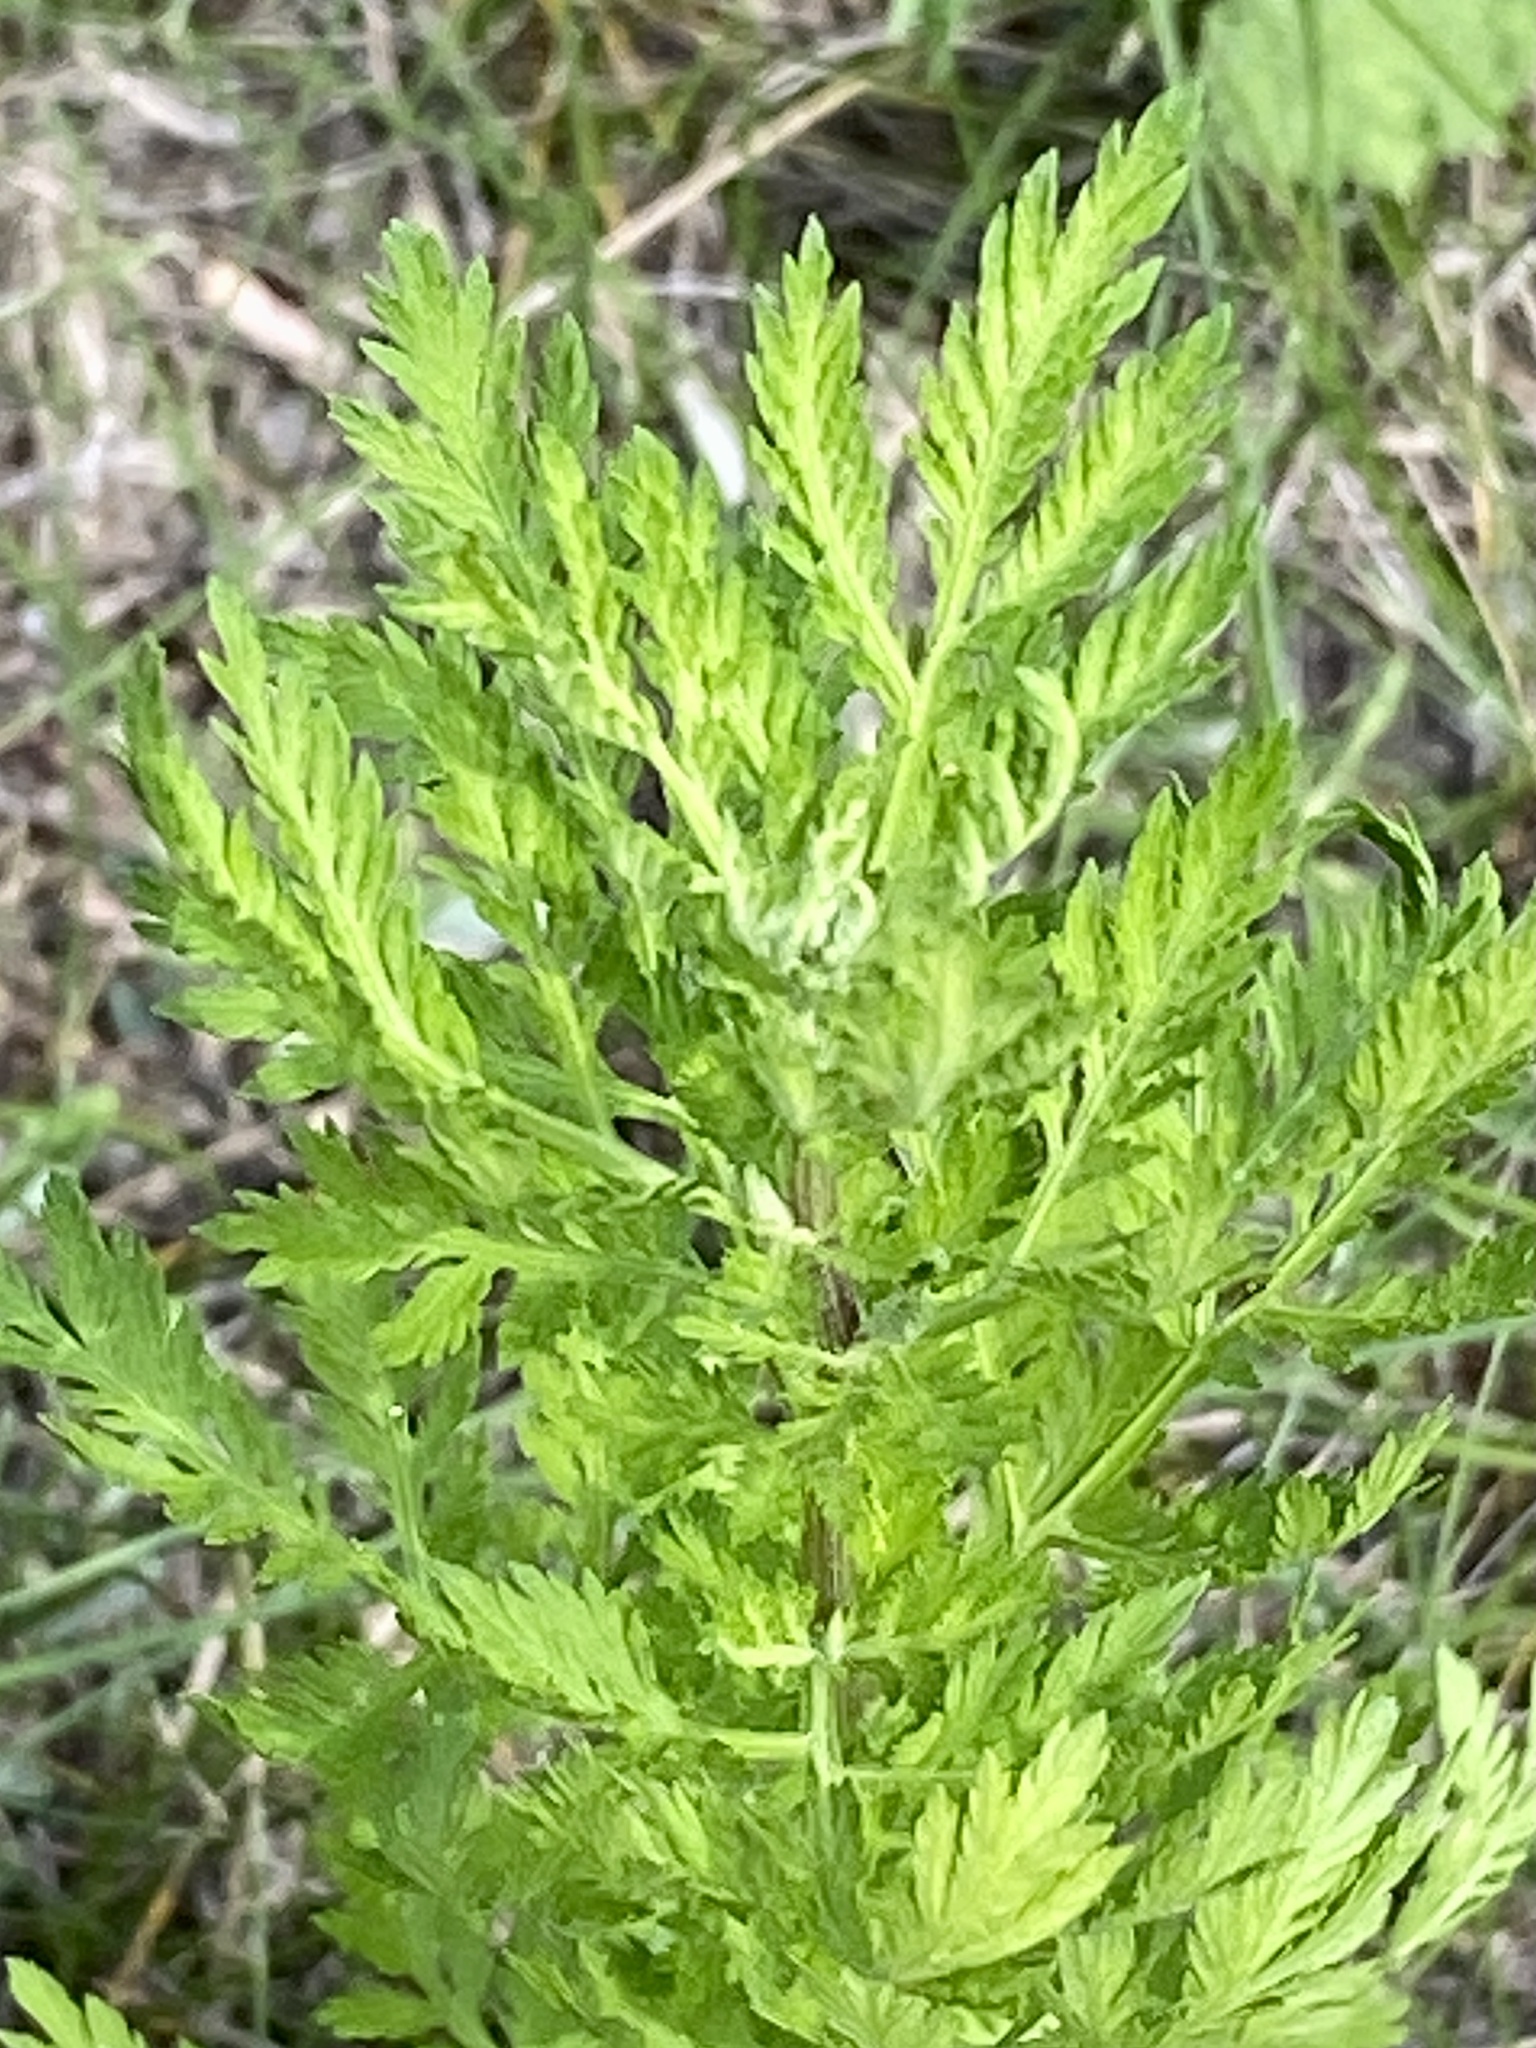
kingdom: Plantae
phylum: Tracheophyta
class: Magnoliopsida
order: Asterales
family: Asteraceae
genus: Artemisia
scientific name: Artemisia annua
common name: Sweet sagewort
